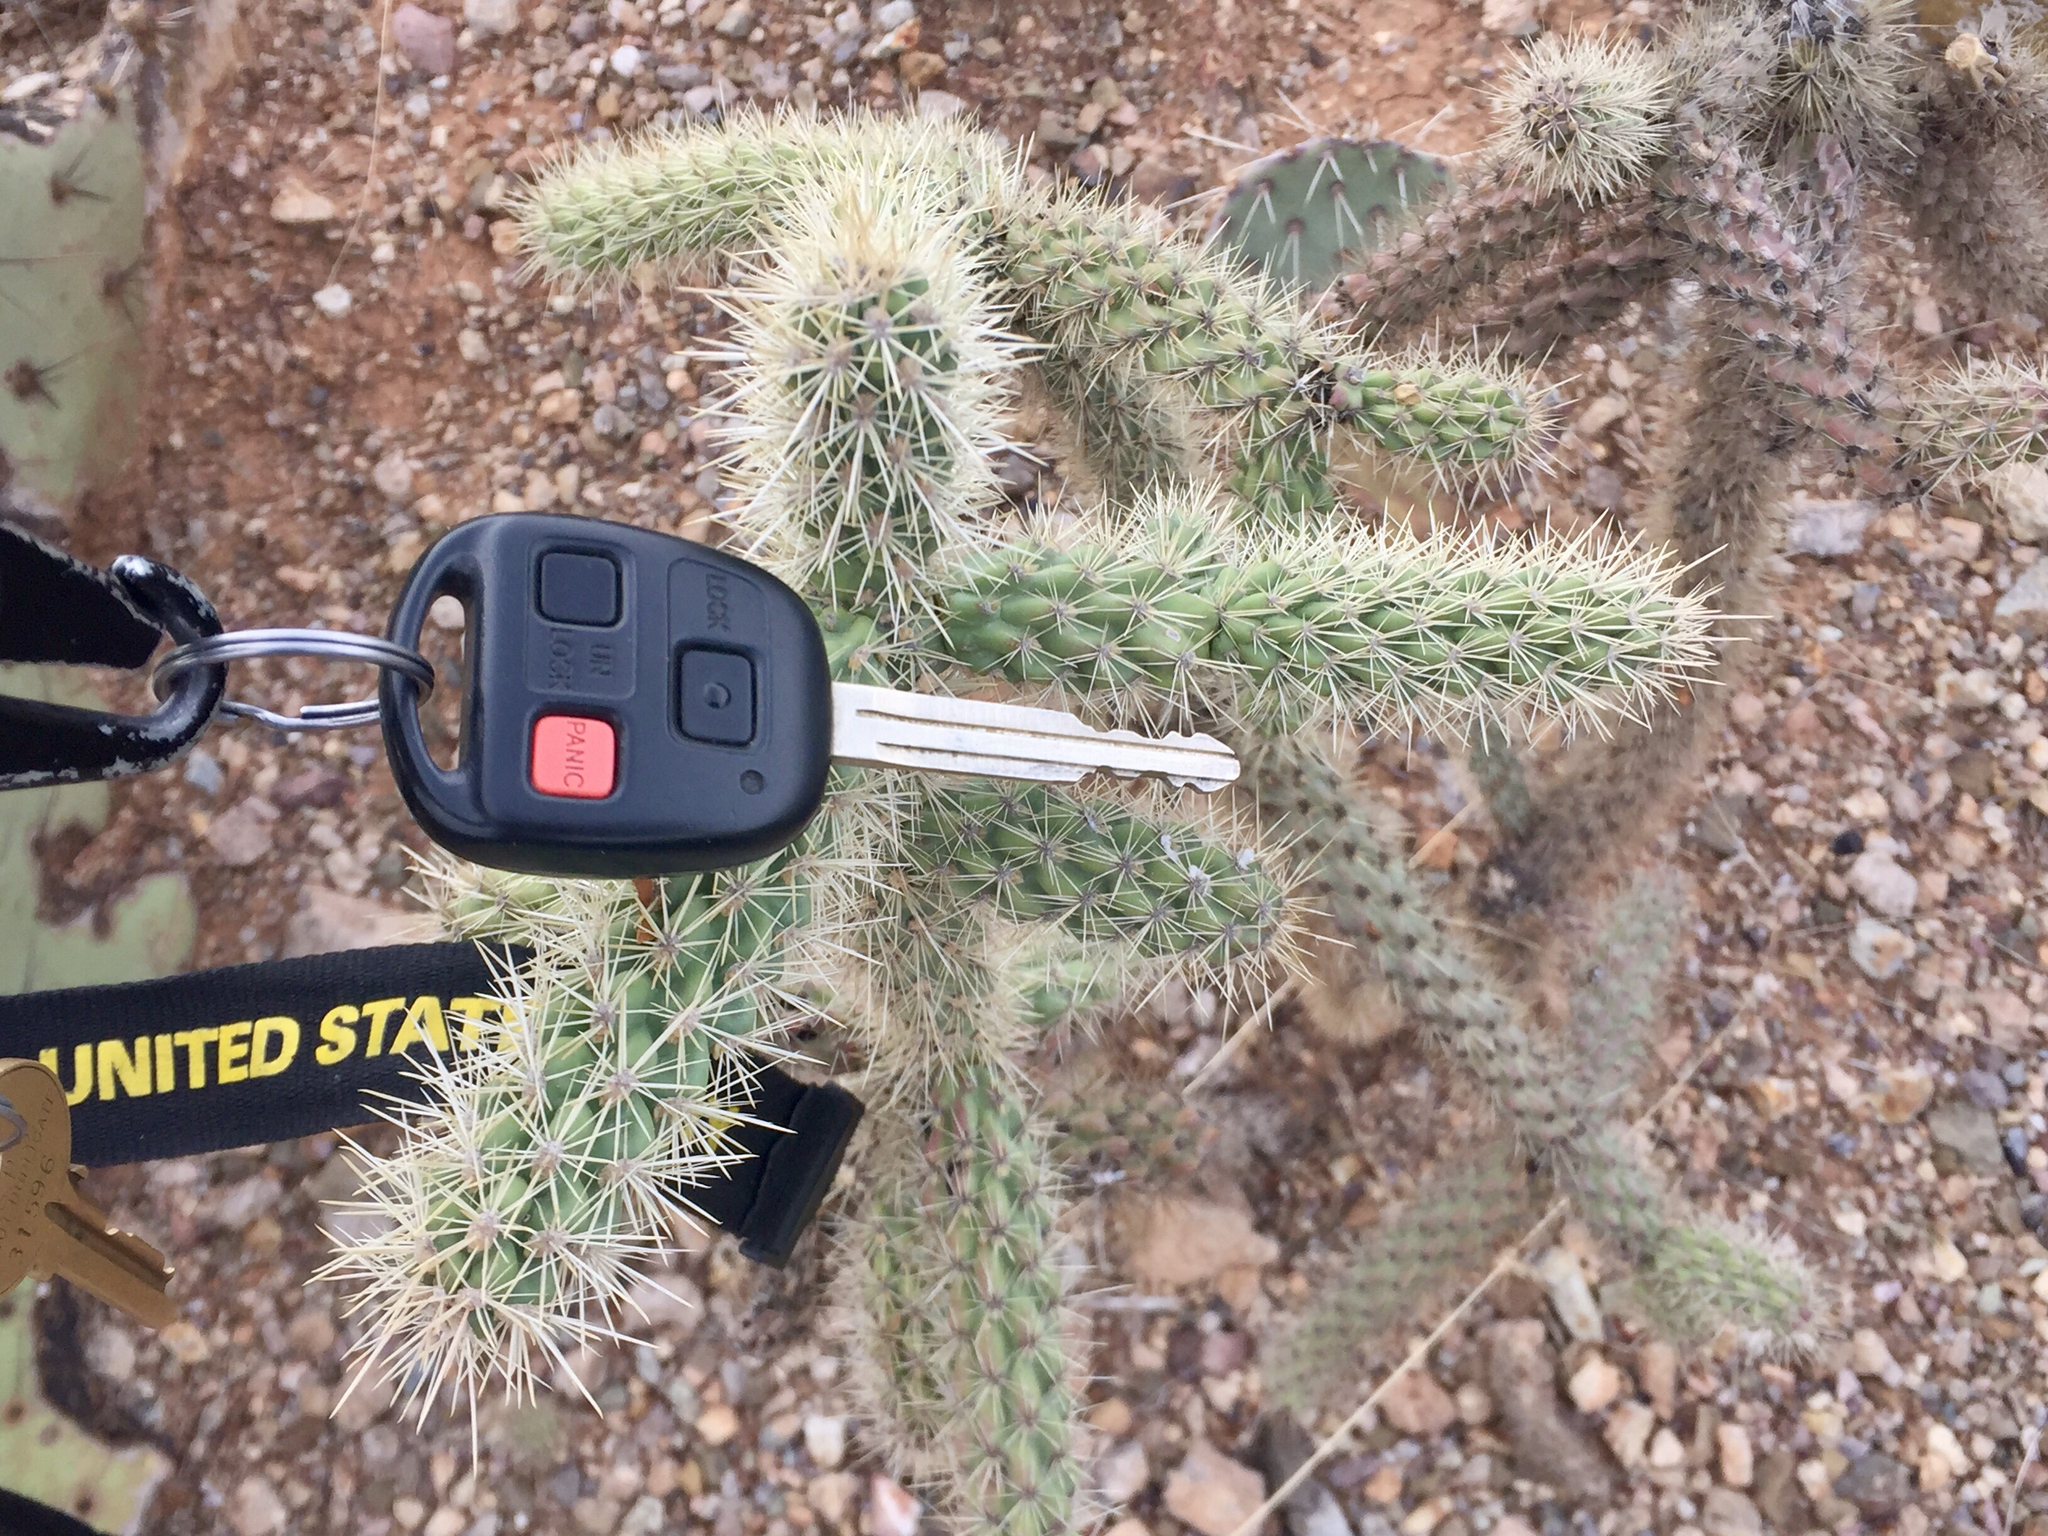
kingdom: Plantae
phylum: Tracheophyta
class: Magnoliopsida
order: Caryophyllales
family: Cactaceae
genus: Cylindropuntia
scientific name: Cylindropuntia imbricata
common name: Candelabrum cactus
